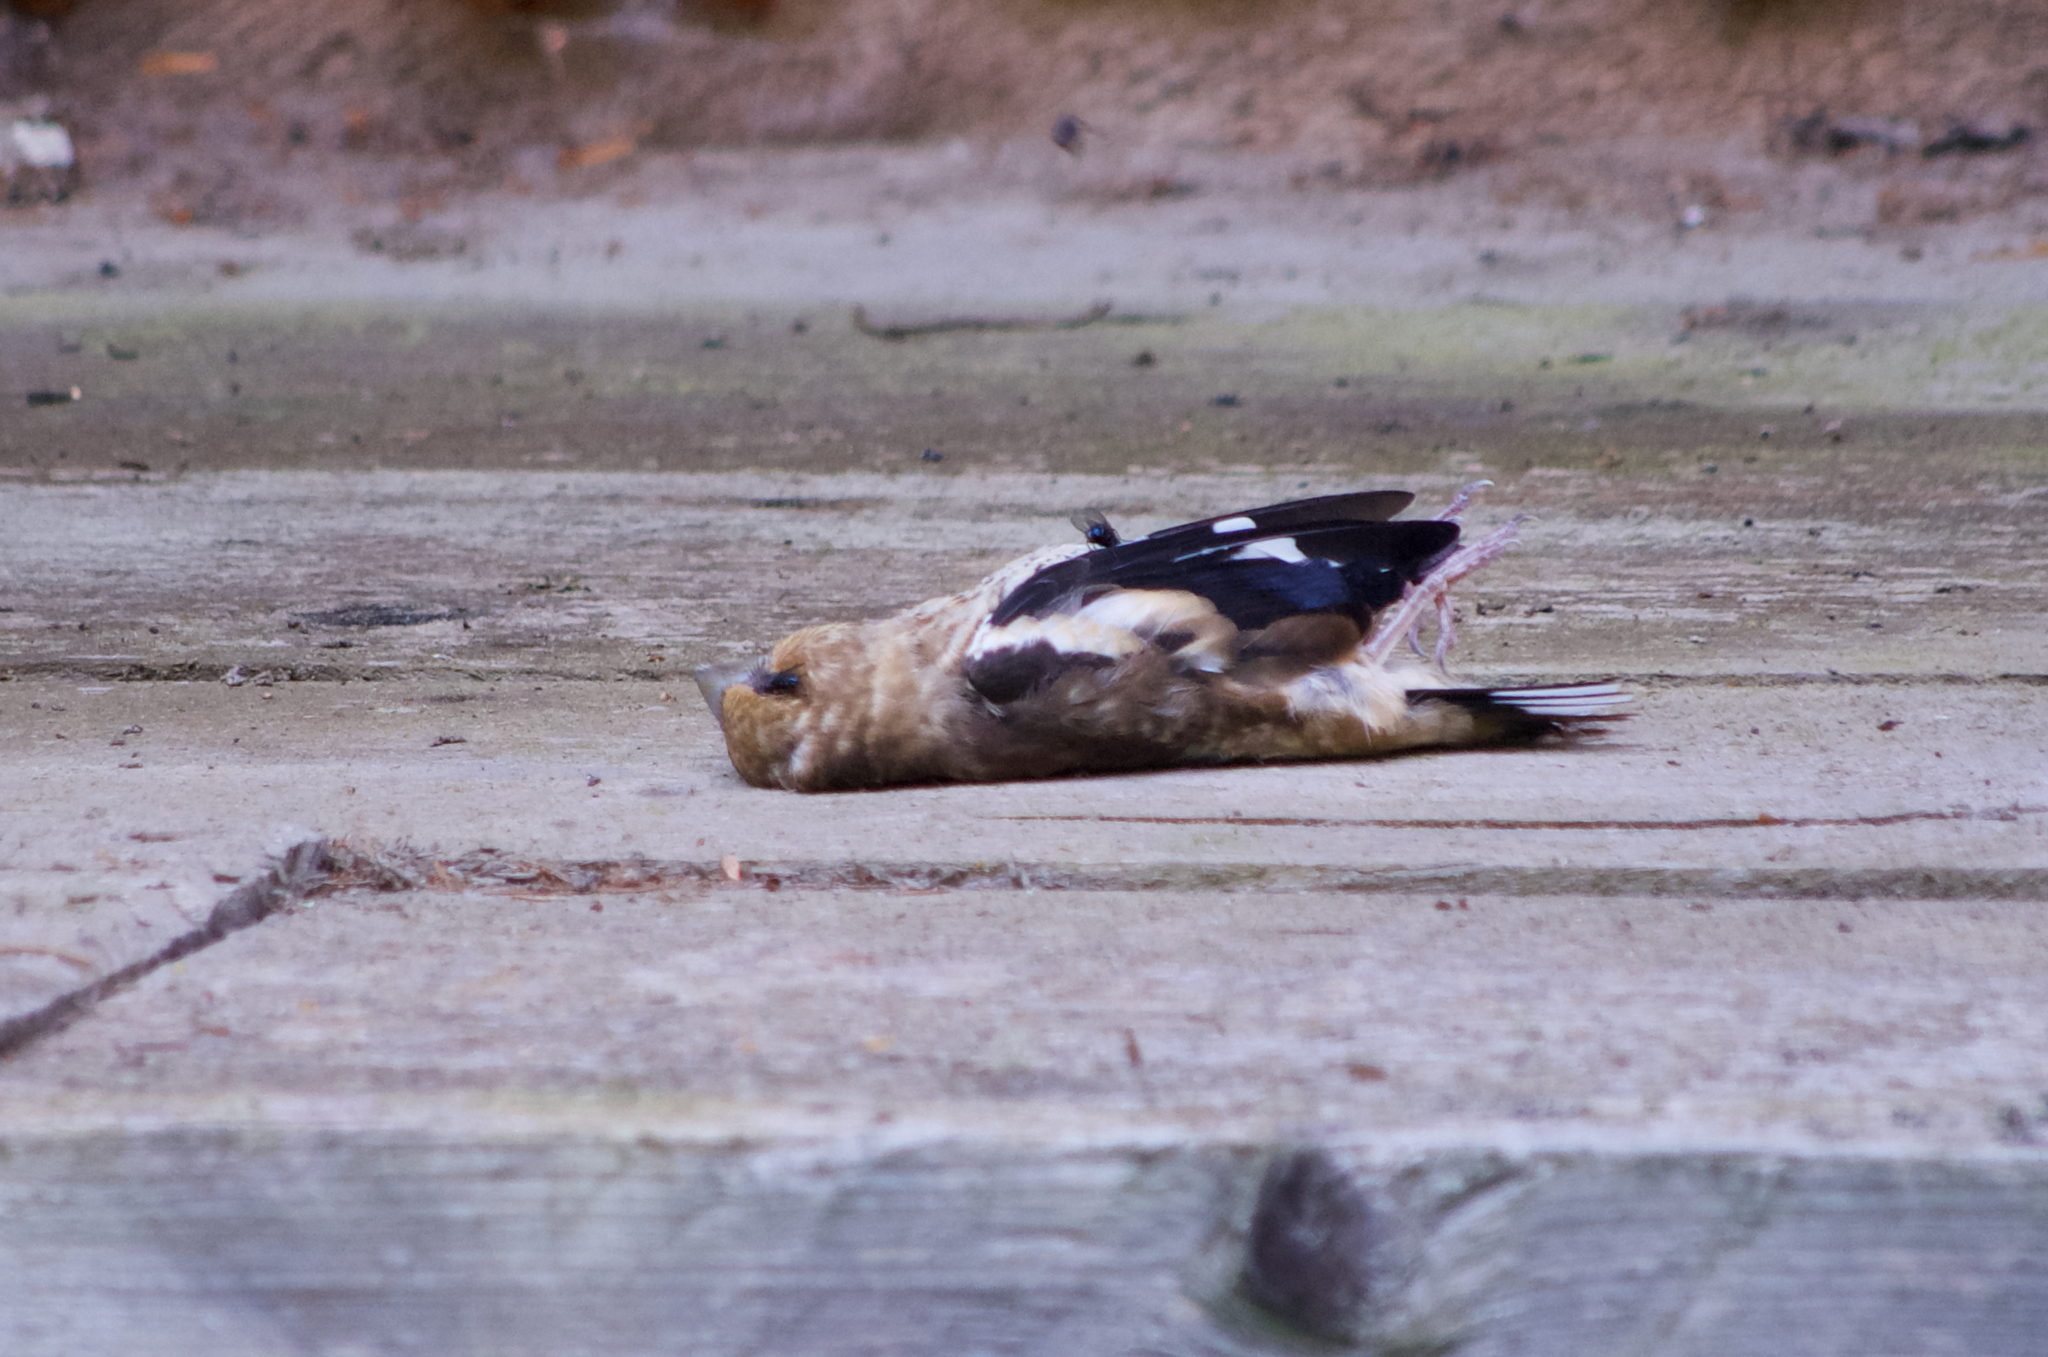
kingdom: Animalia
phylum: Chordata
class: Aves
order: Passeriformes
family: Fringillidae
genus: Coccothraustes
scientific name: Coccothraustes coccothraustes
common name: Hawfinch
